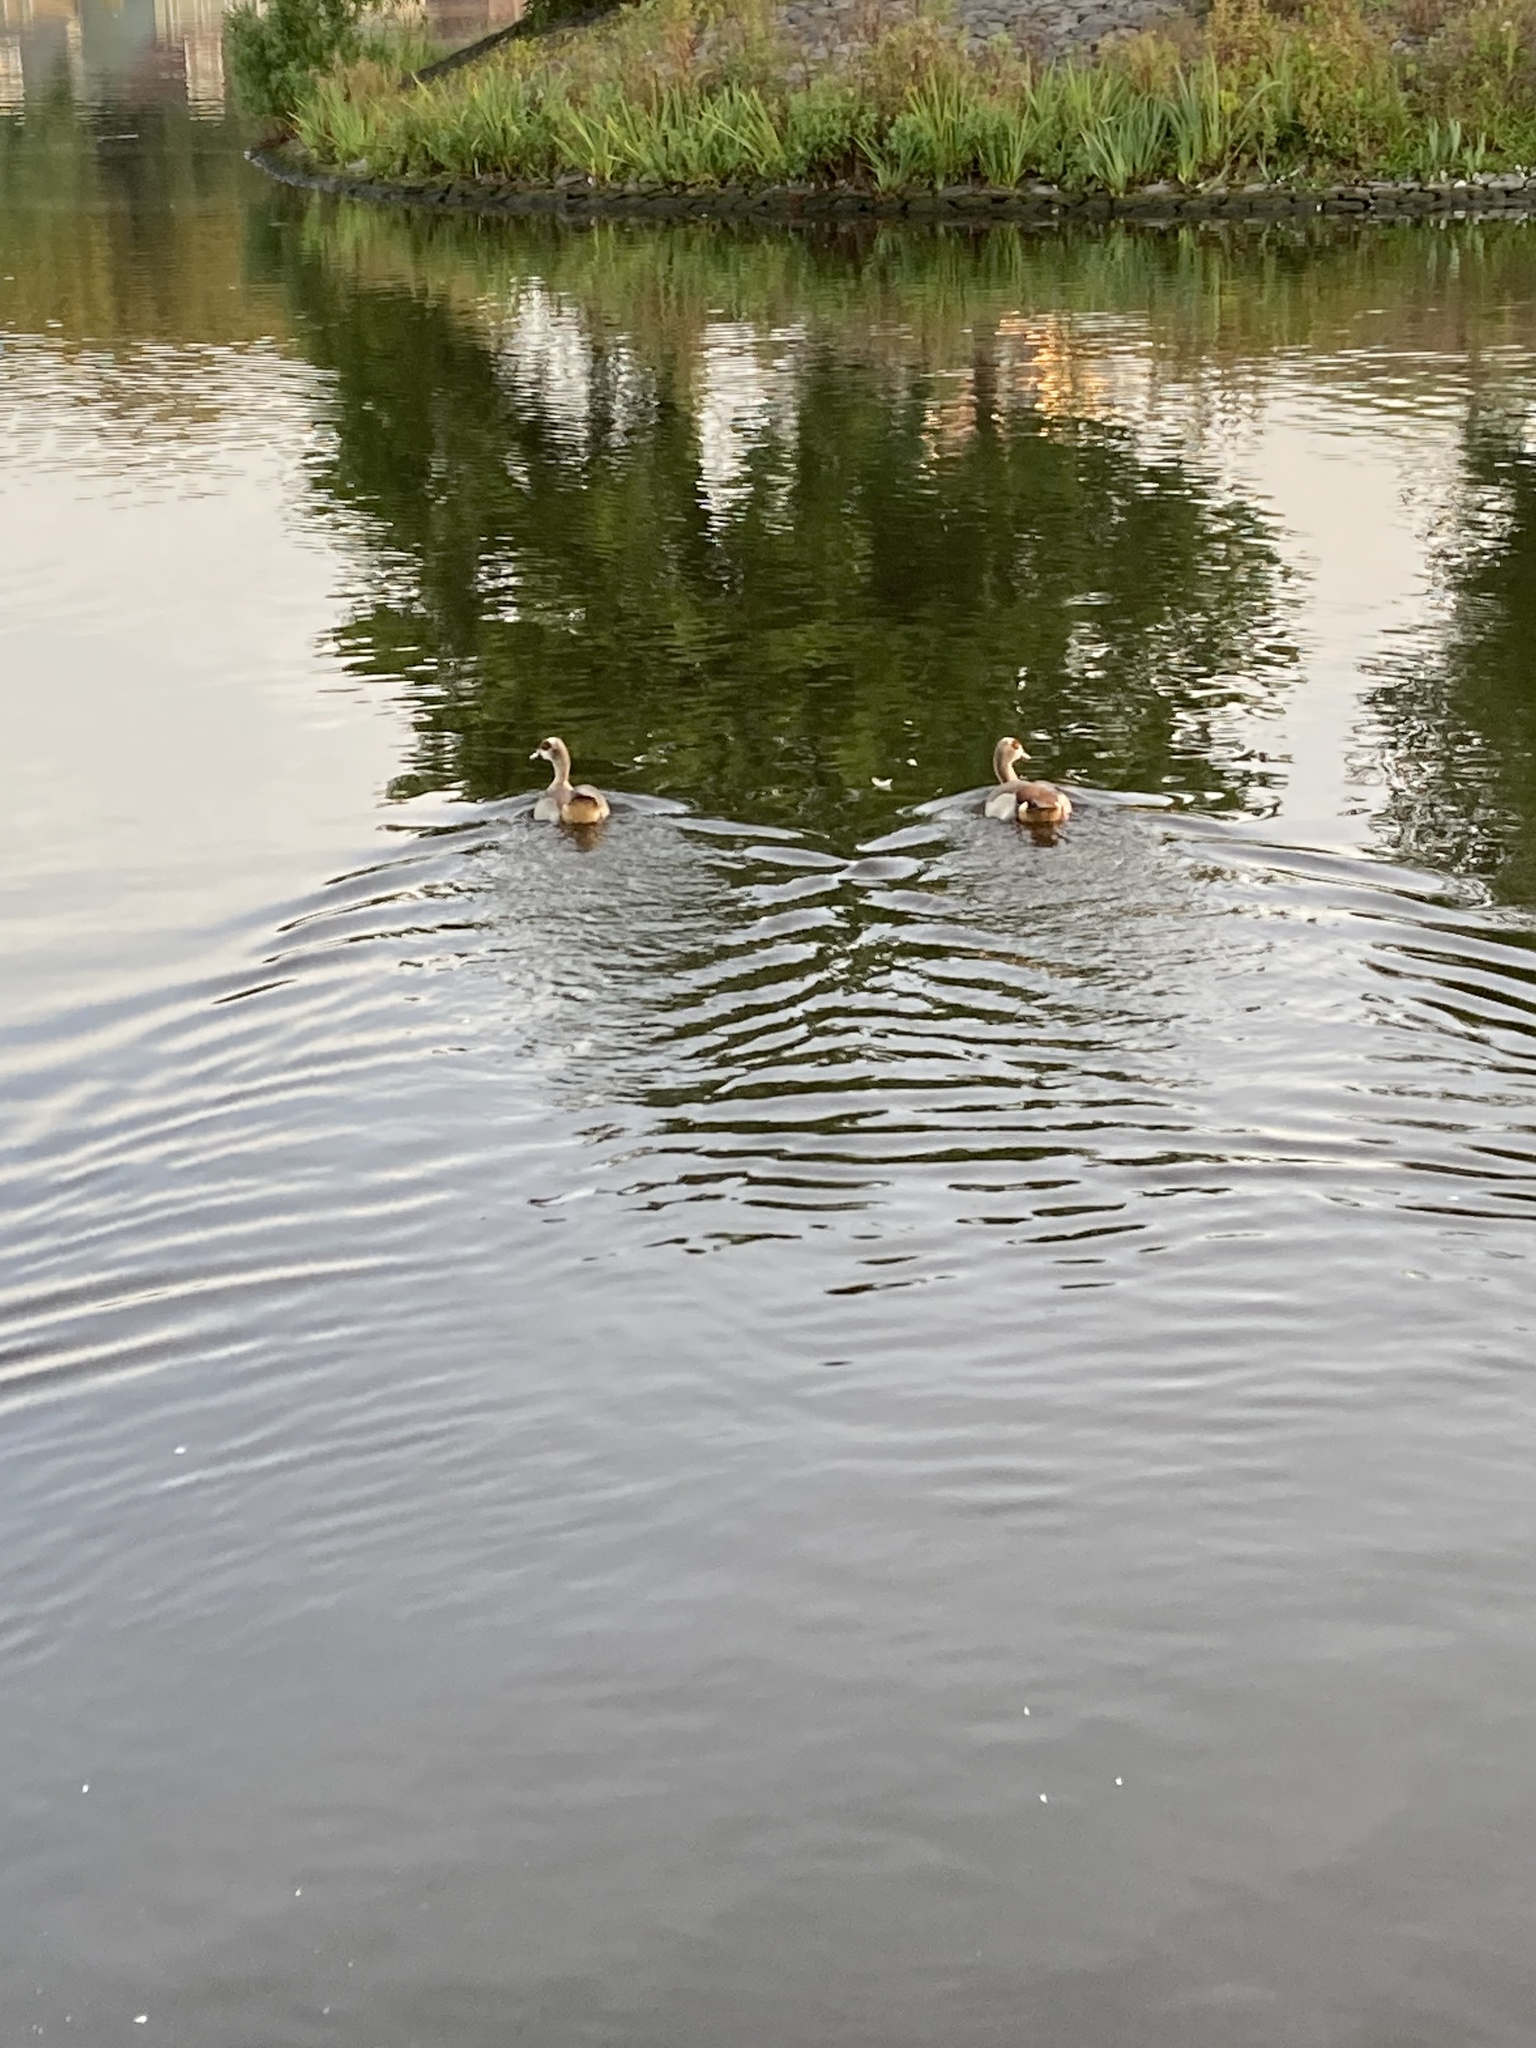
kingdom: Animalia
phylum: Chordata
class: Aves
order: Anseriformes
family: Anatidae
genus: Alopochen
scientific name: Alopochen aegyptiaca
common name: Egyptian goose
